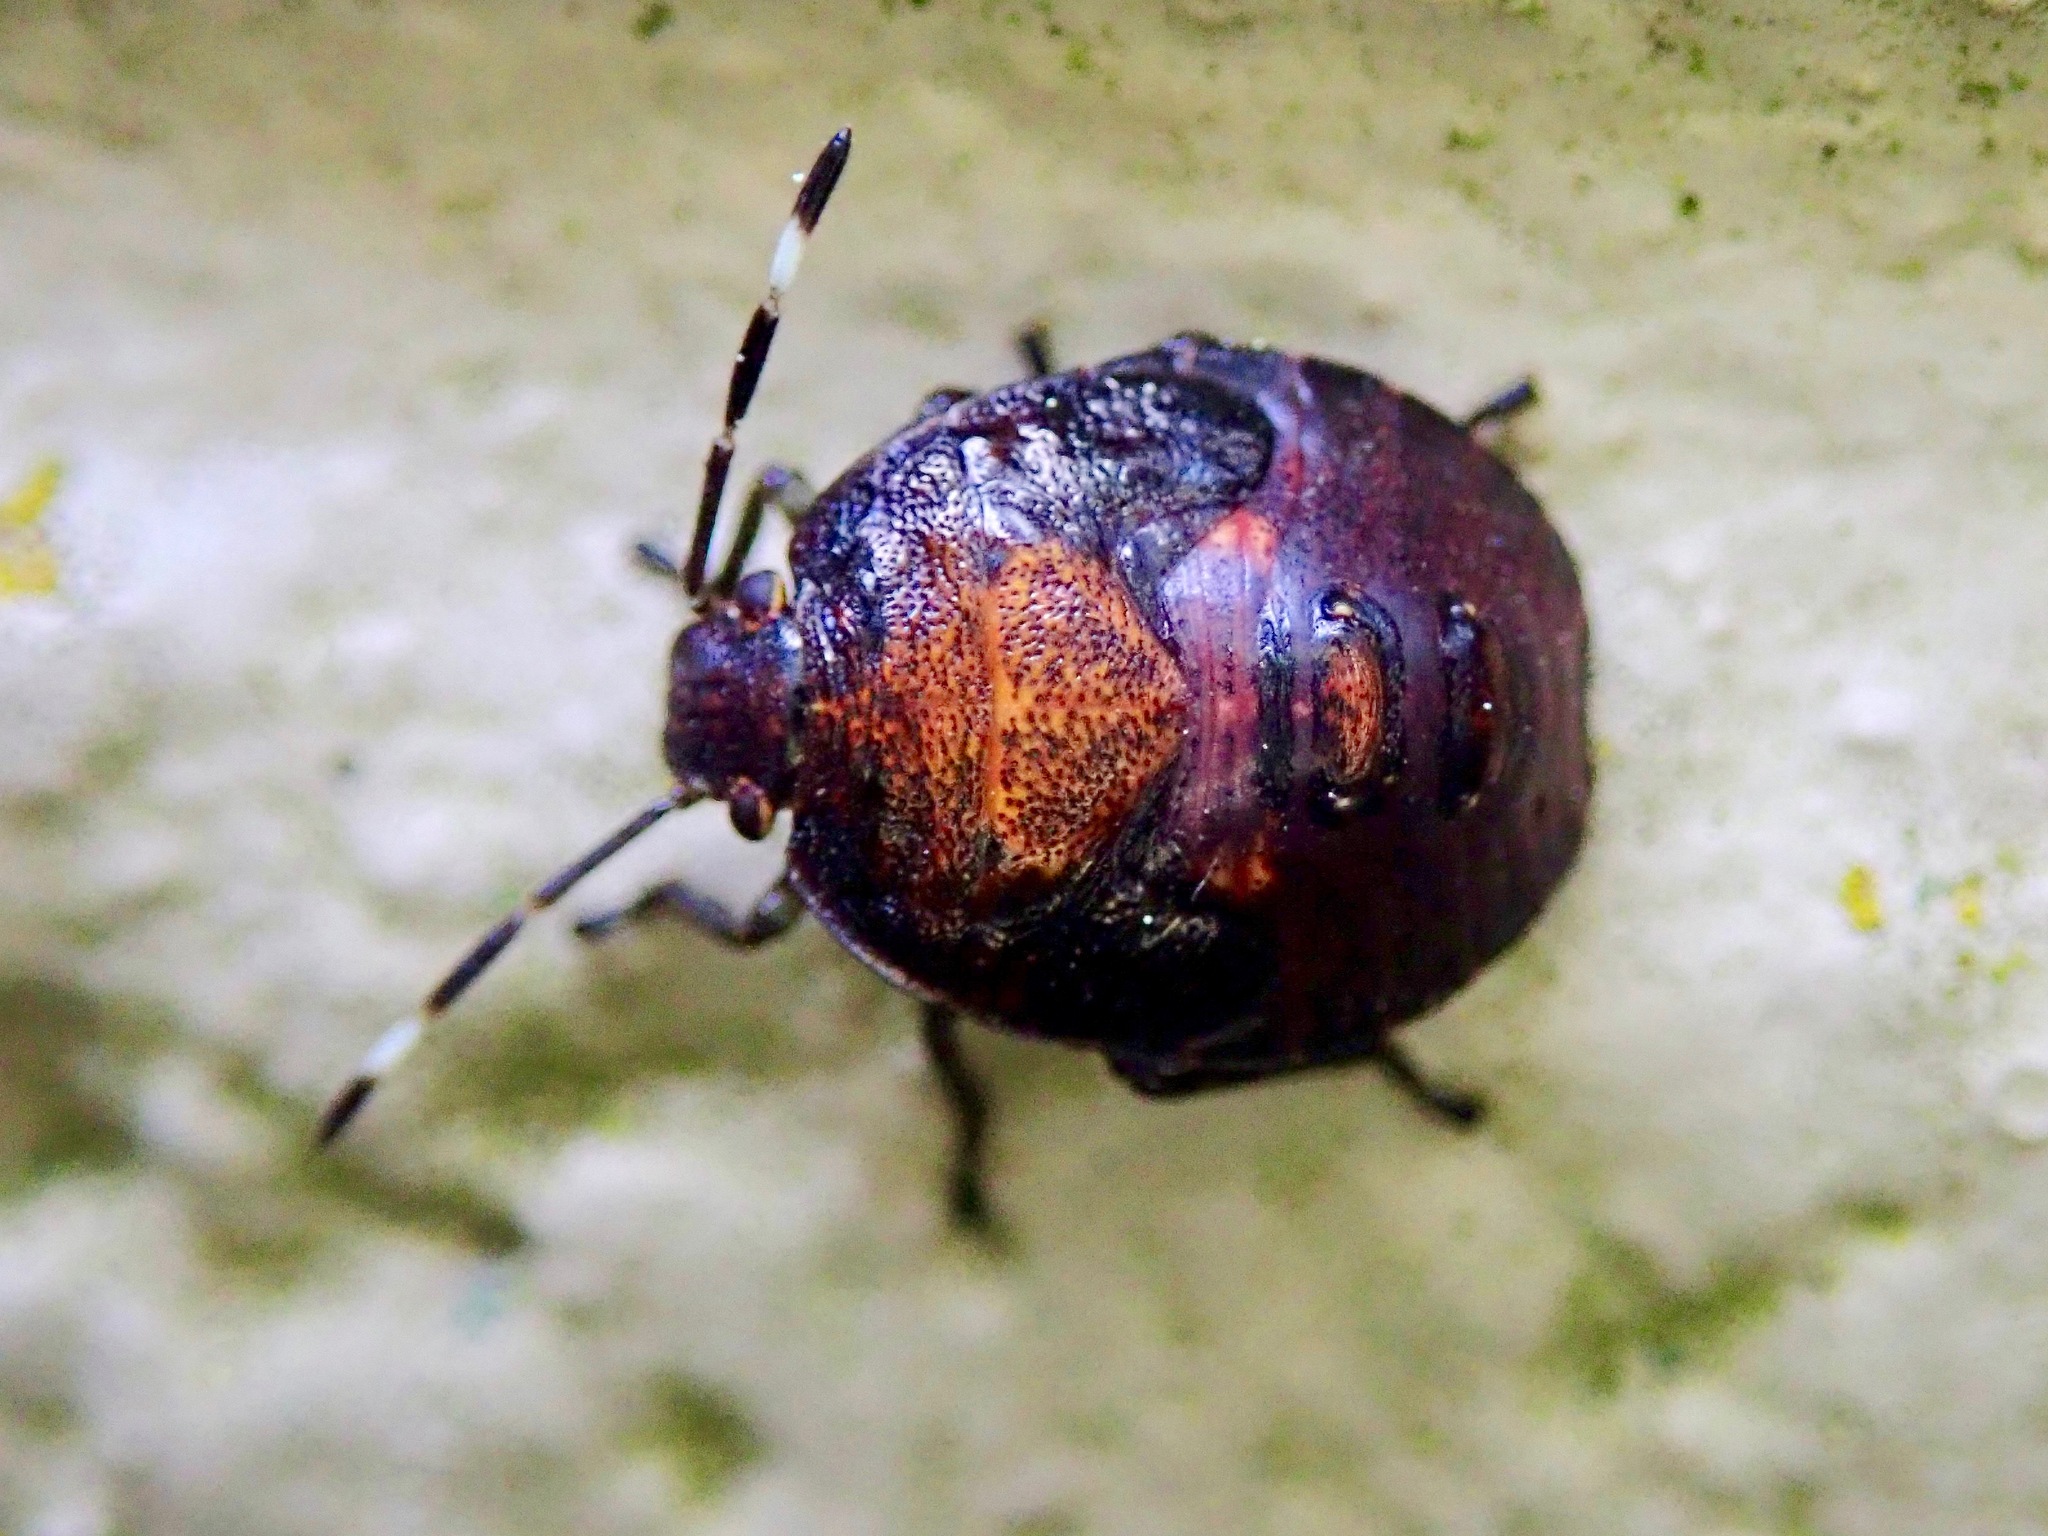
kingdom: Animalia
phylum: Arthropoda
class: Insecta
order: Hemiptera
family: Pentatomidae
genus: Monteithiella
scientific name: Monteithiella
